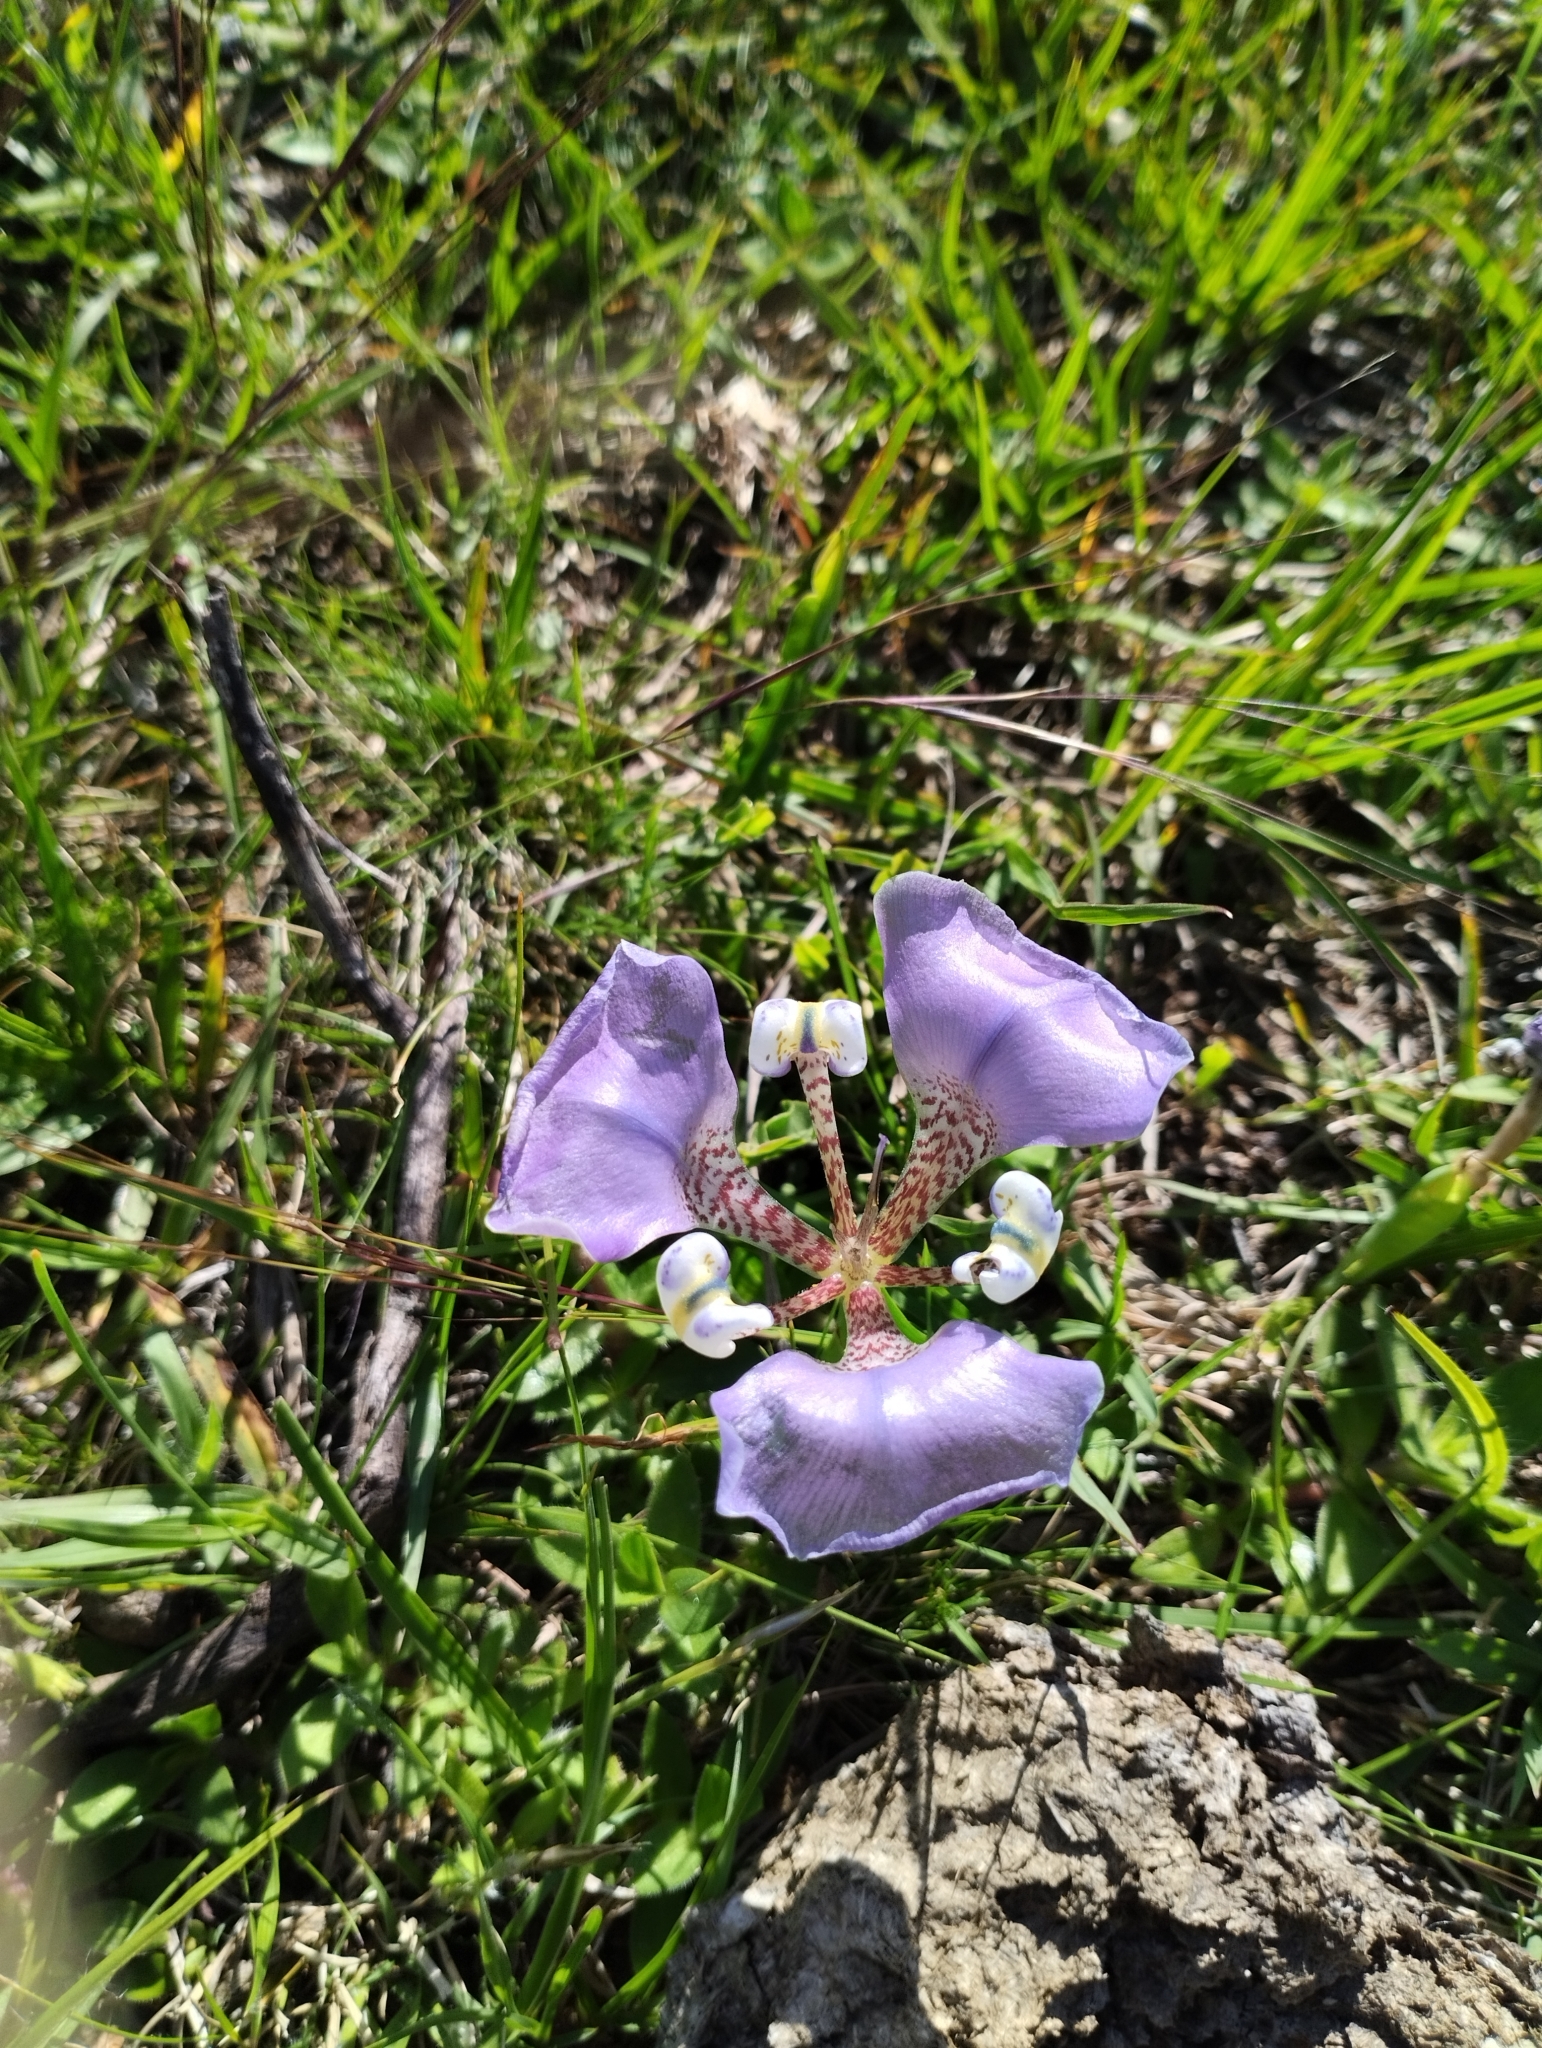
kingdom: Plantae
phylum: Tracheophyta
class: Liliopsida
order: Asparagales
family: Iridaceae
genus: Cypella
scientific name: Cypella unguiculata
